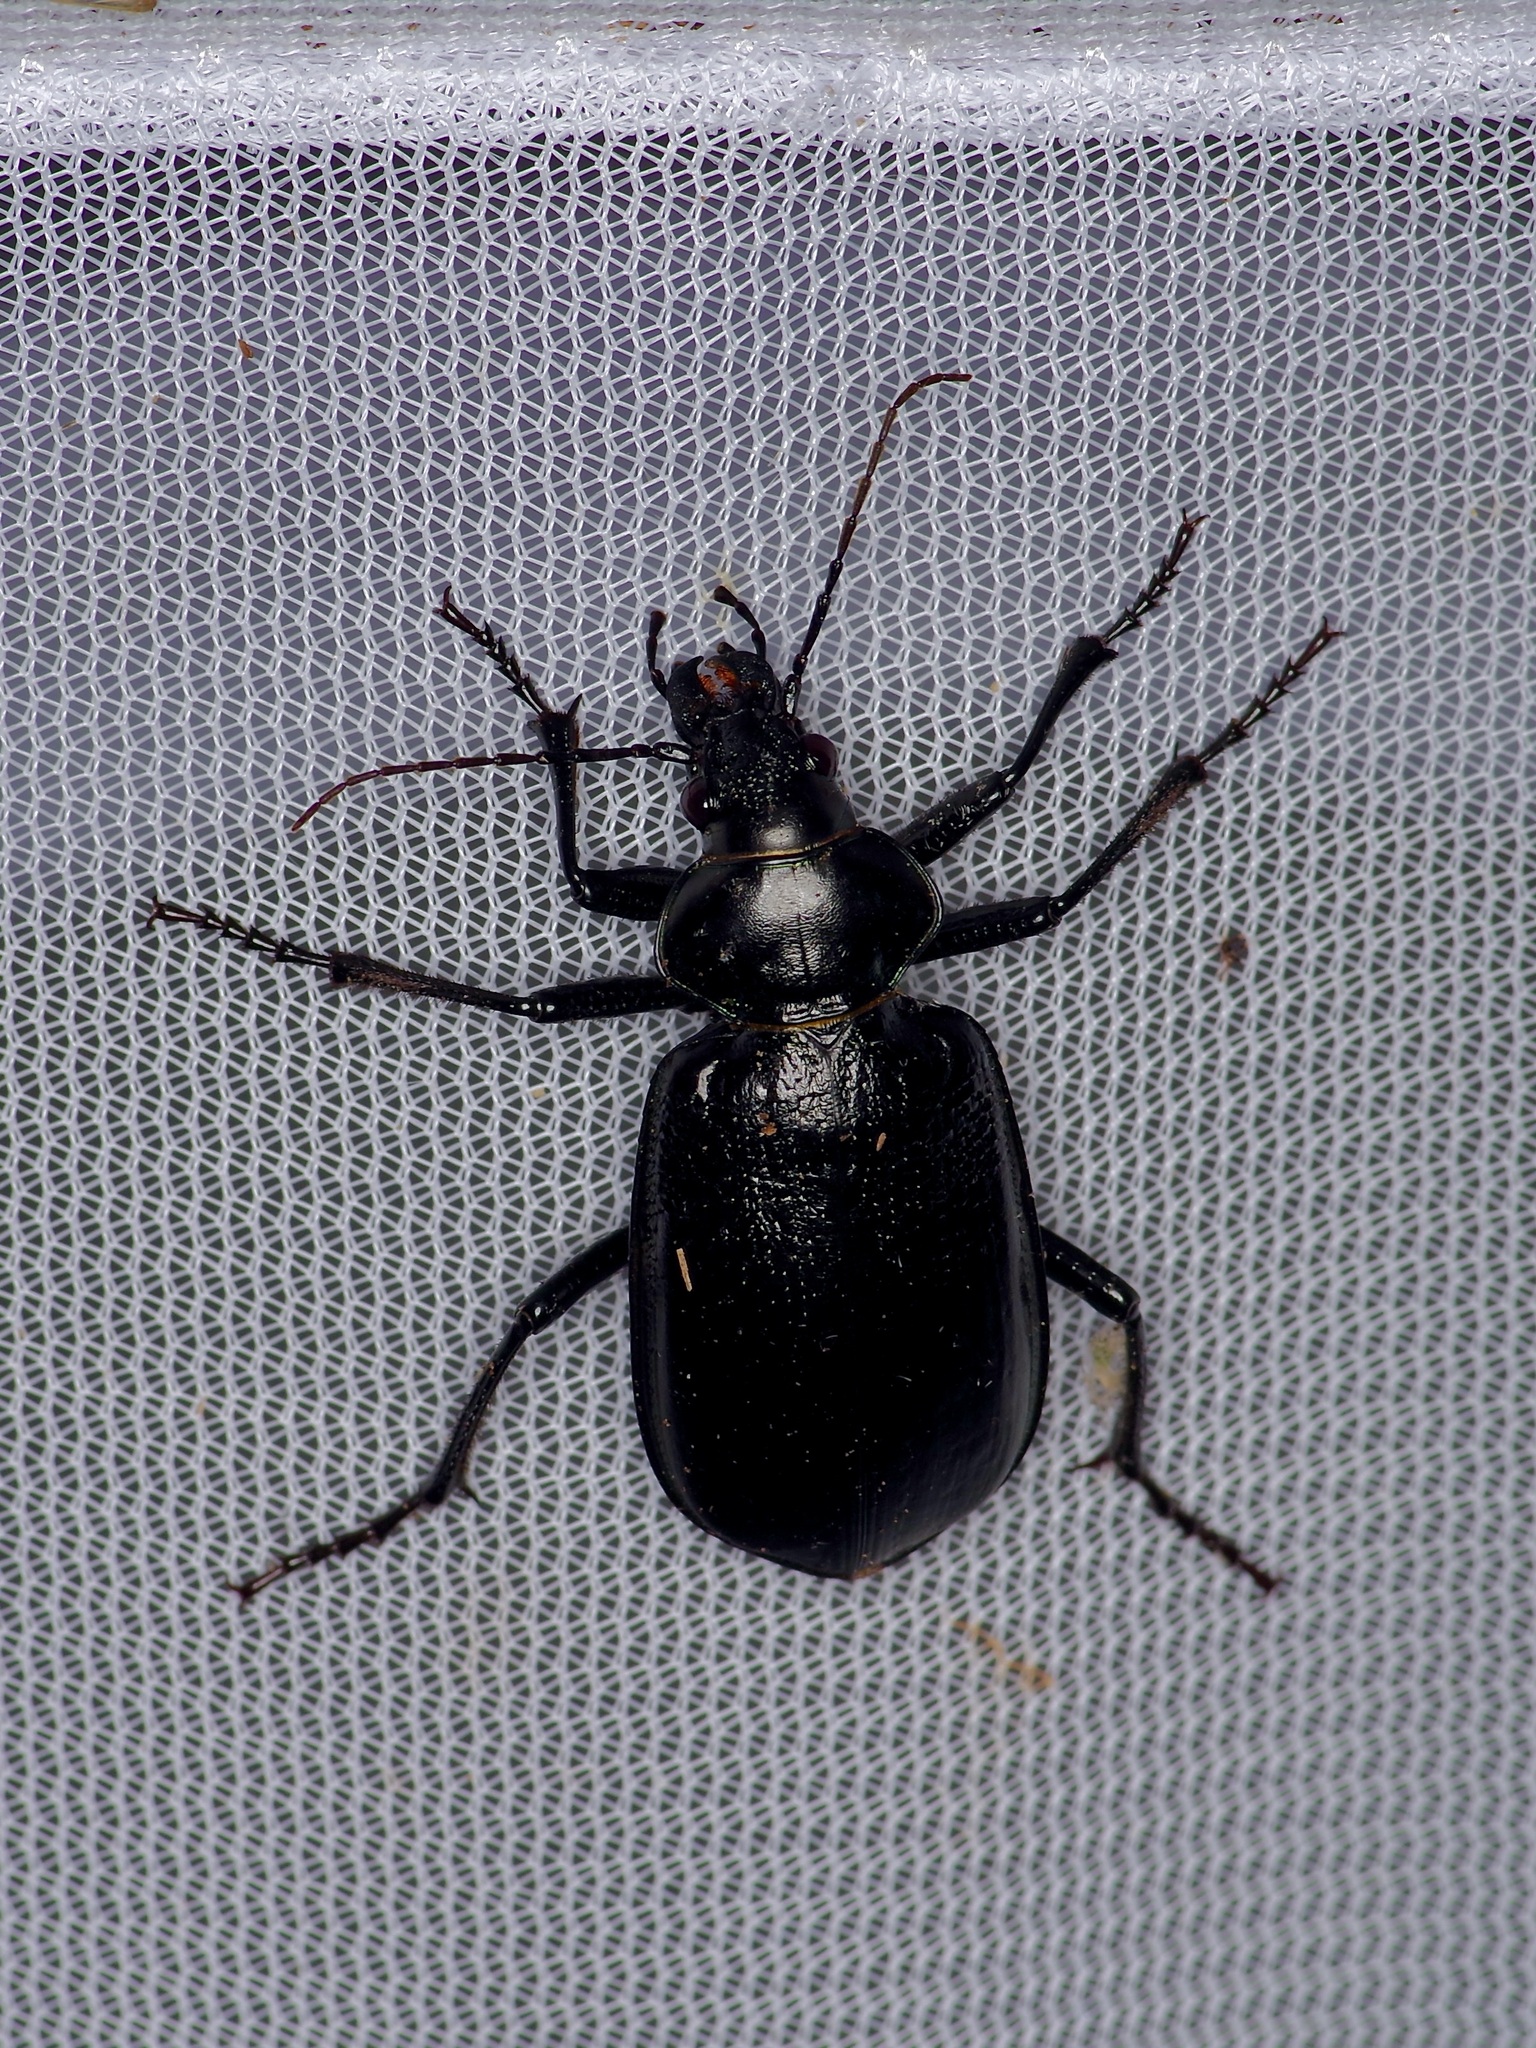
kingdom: Animalia
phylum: Arthropoda
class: Insecta
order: Coleoptera
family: Carabidae
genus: Calosoma
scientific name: Calosoma marginale
